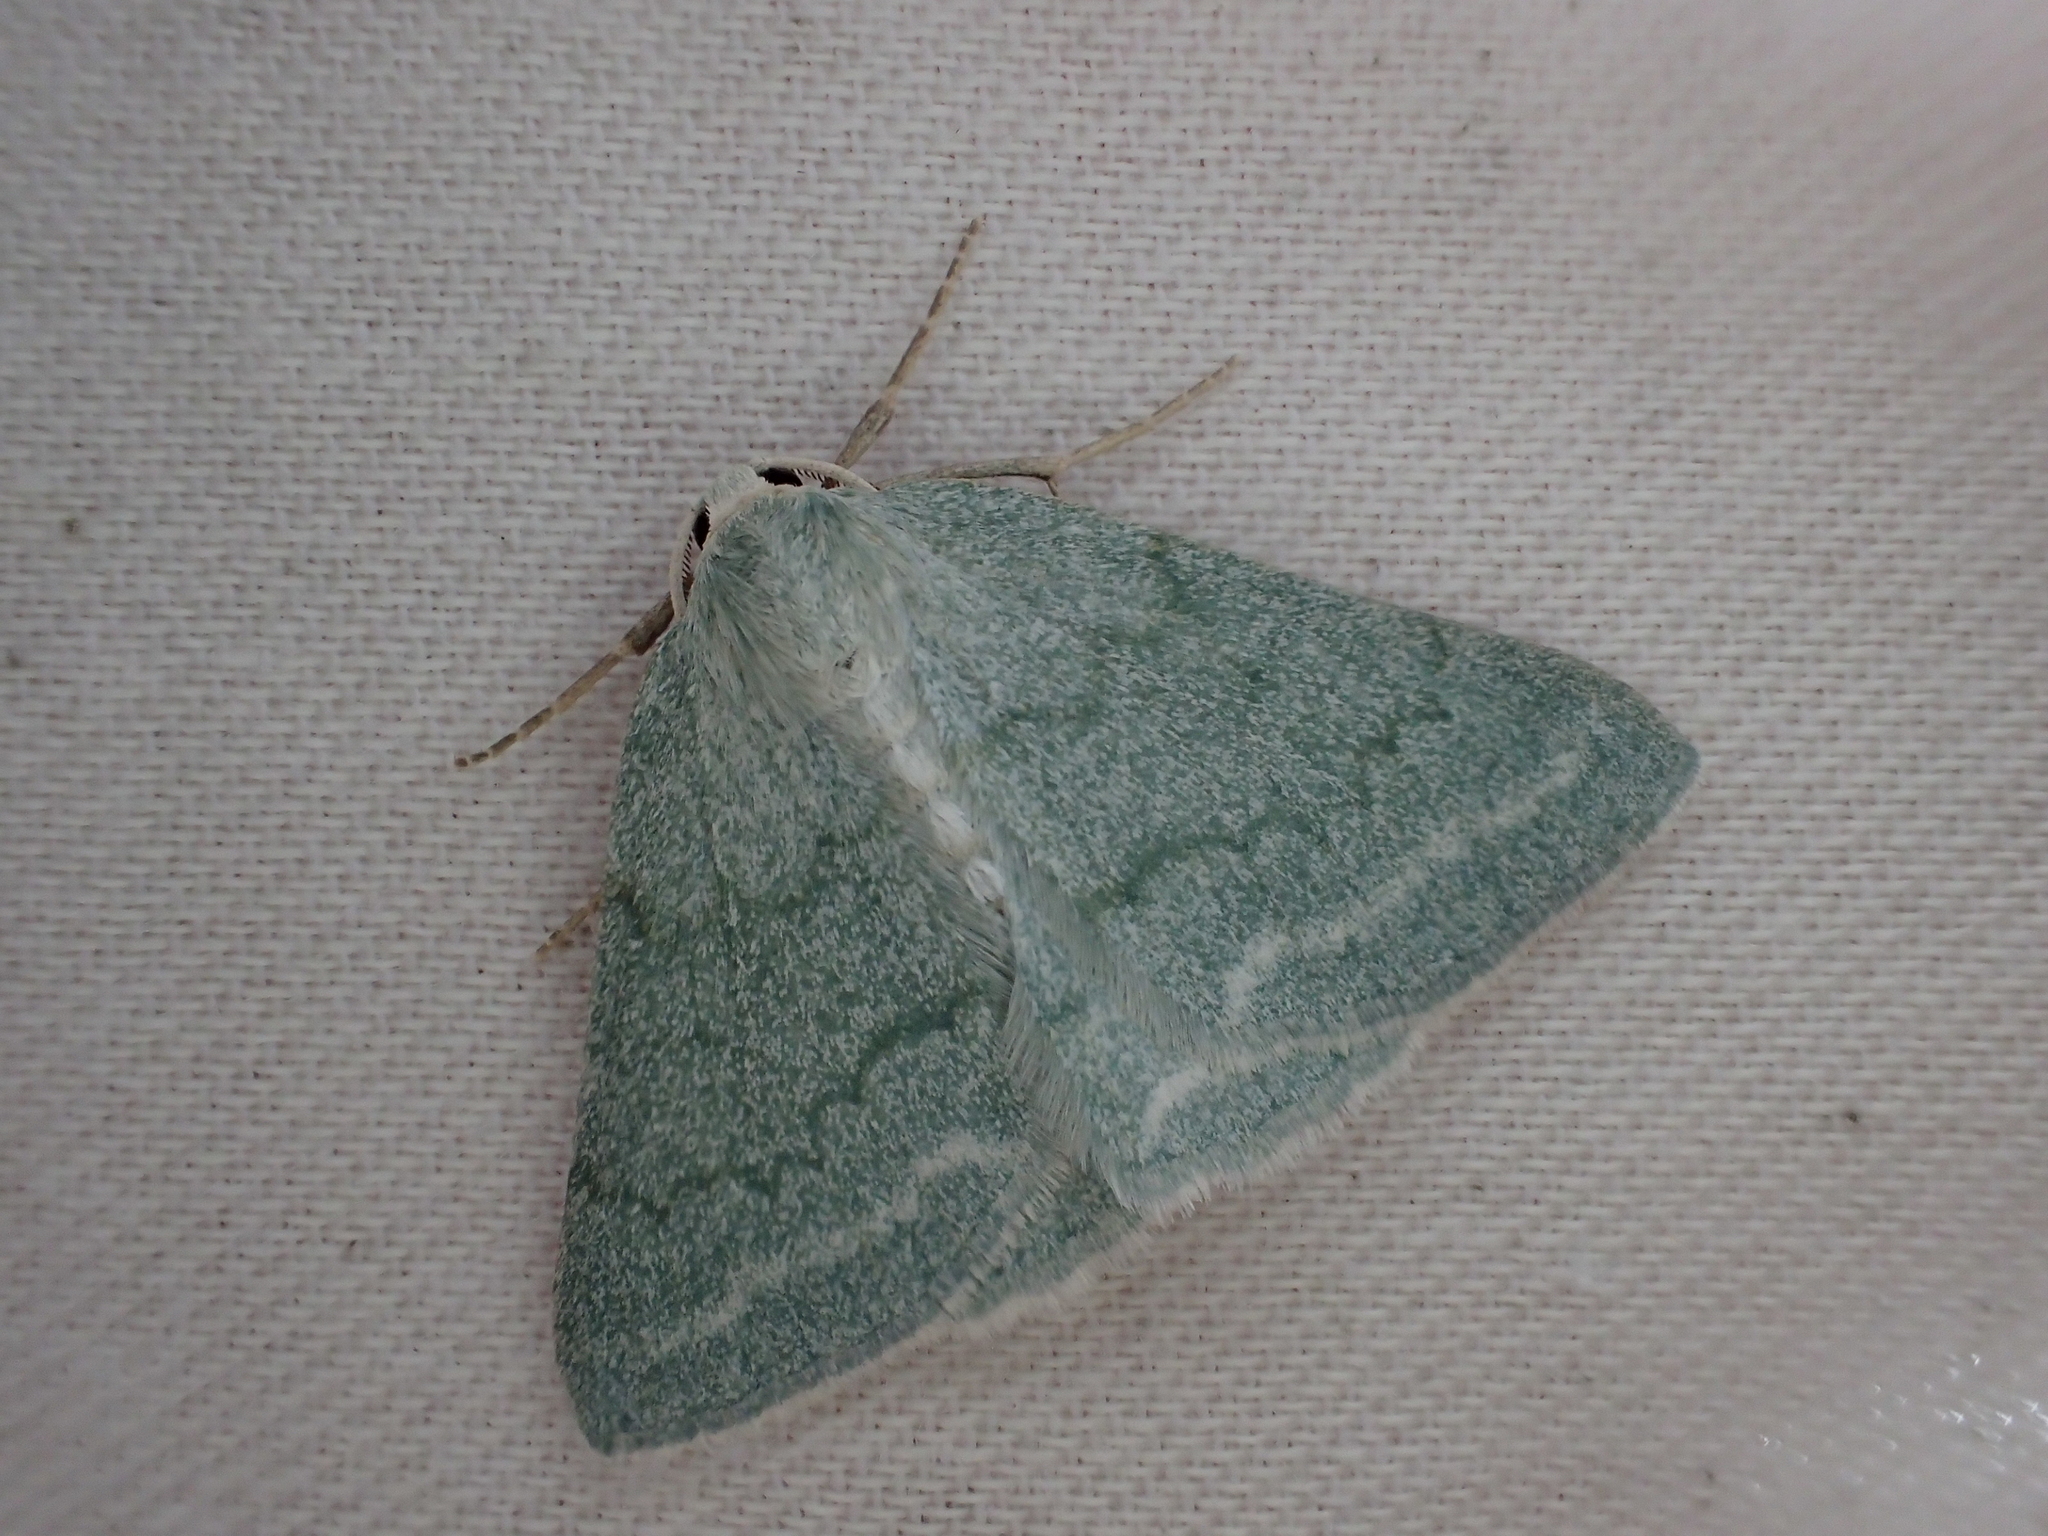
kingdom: Animalia
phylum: Arthropoda
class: Insecta
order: Lepidoptera
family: Geometridae
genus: Pseudoterpna
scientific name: Pseudoterpna pruinata
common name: Grass emerald
